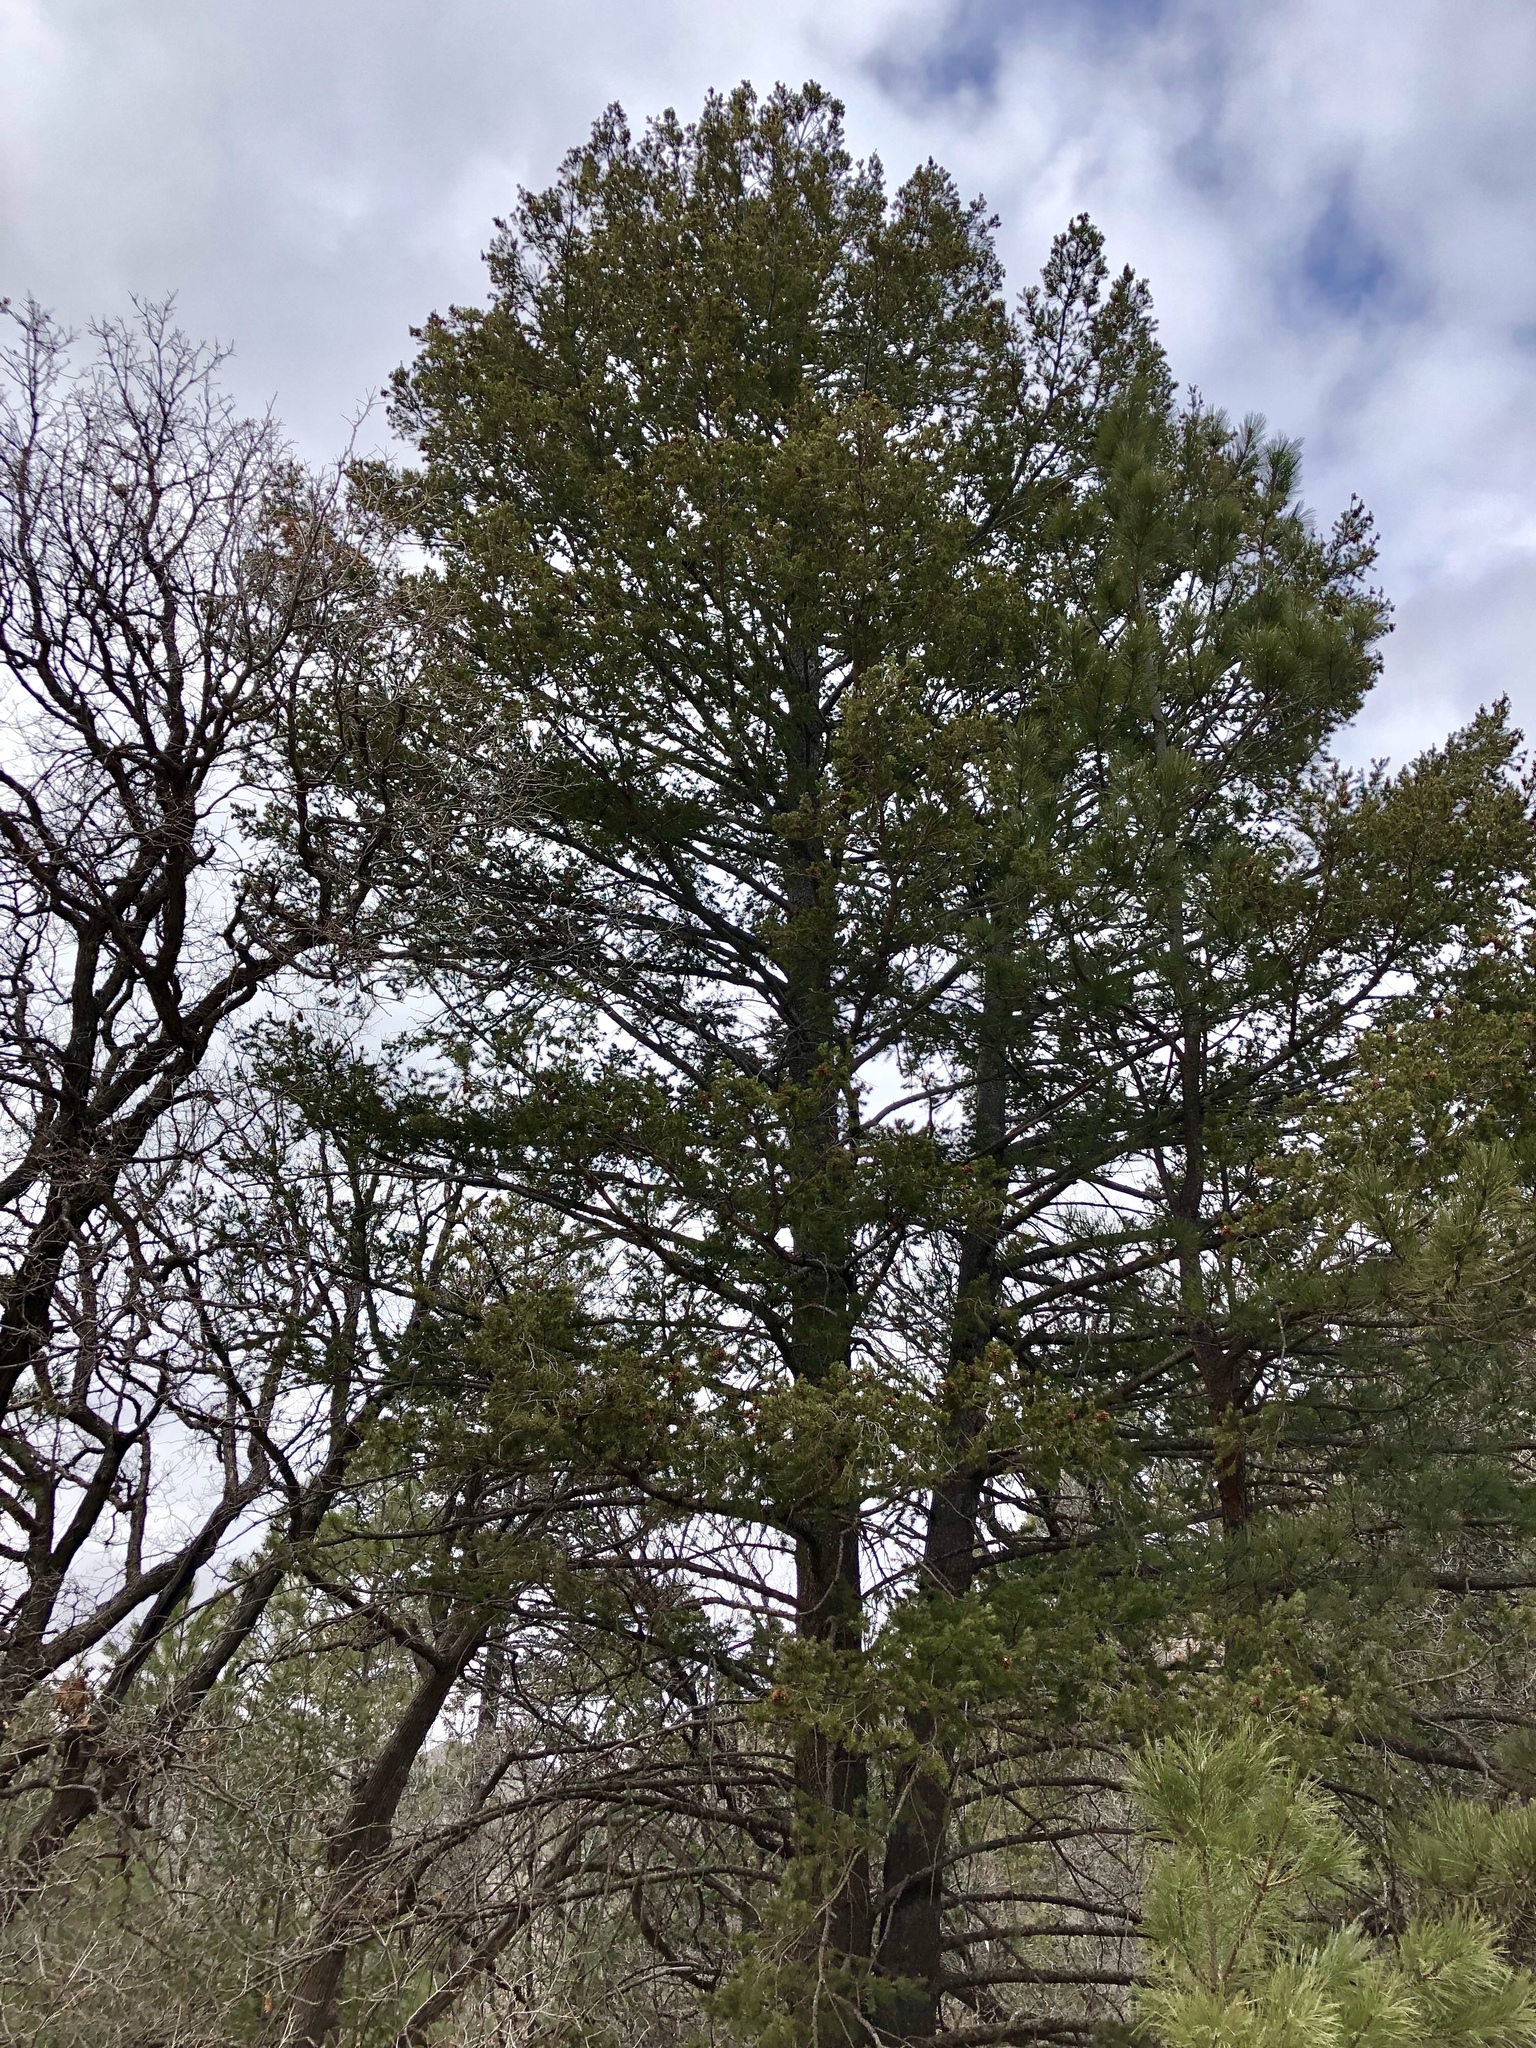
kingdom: Plantae
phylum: Tracheophyta
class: Pinopsida
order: Pinales
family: Pinaceae
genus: Pseudotsuga
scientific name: Pseudotsuga menziesii
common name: Douglas fir
